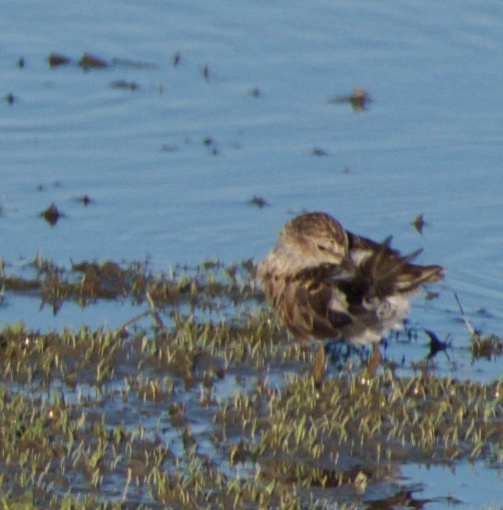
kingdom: Animalia
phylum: Chordata
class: Aves
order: Charadriiformes
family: Scolopacidae
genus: Calidris
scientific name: Calidris minutilla
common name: Least sandpiper
